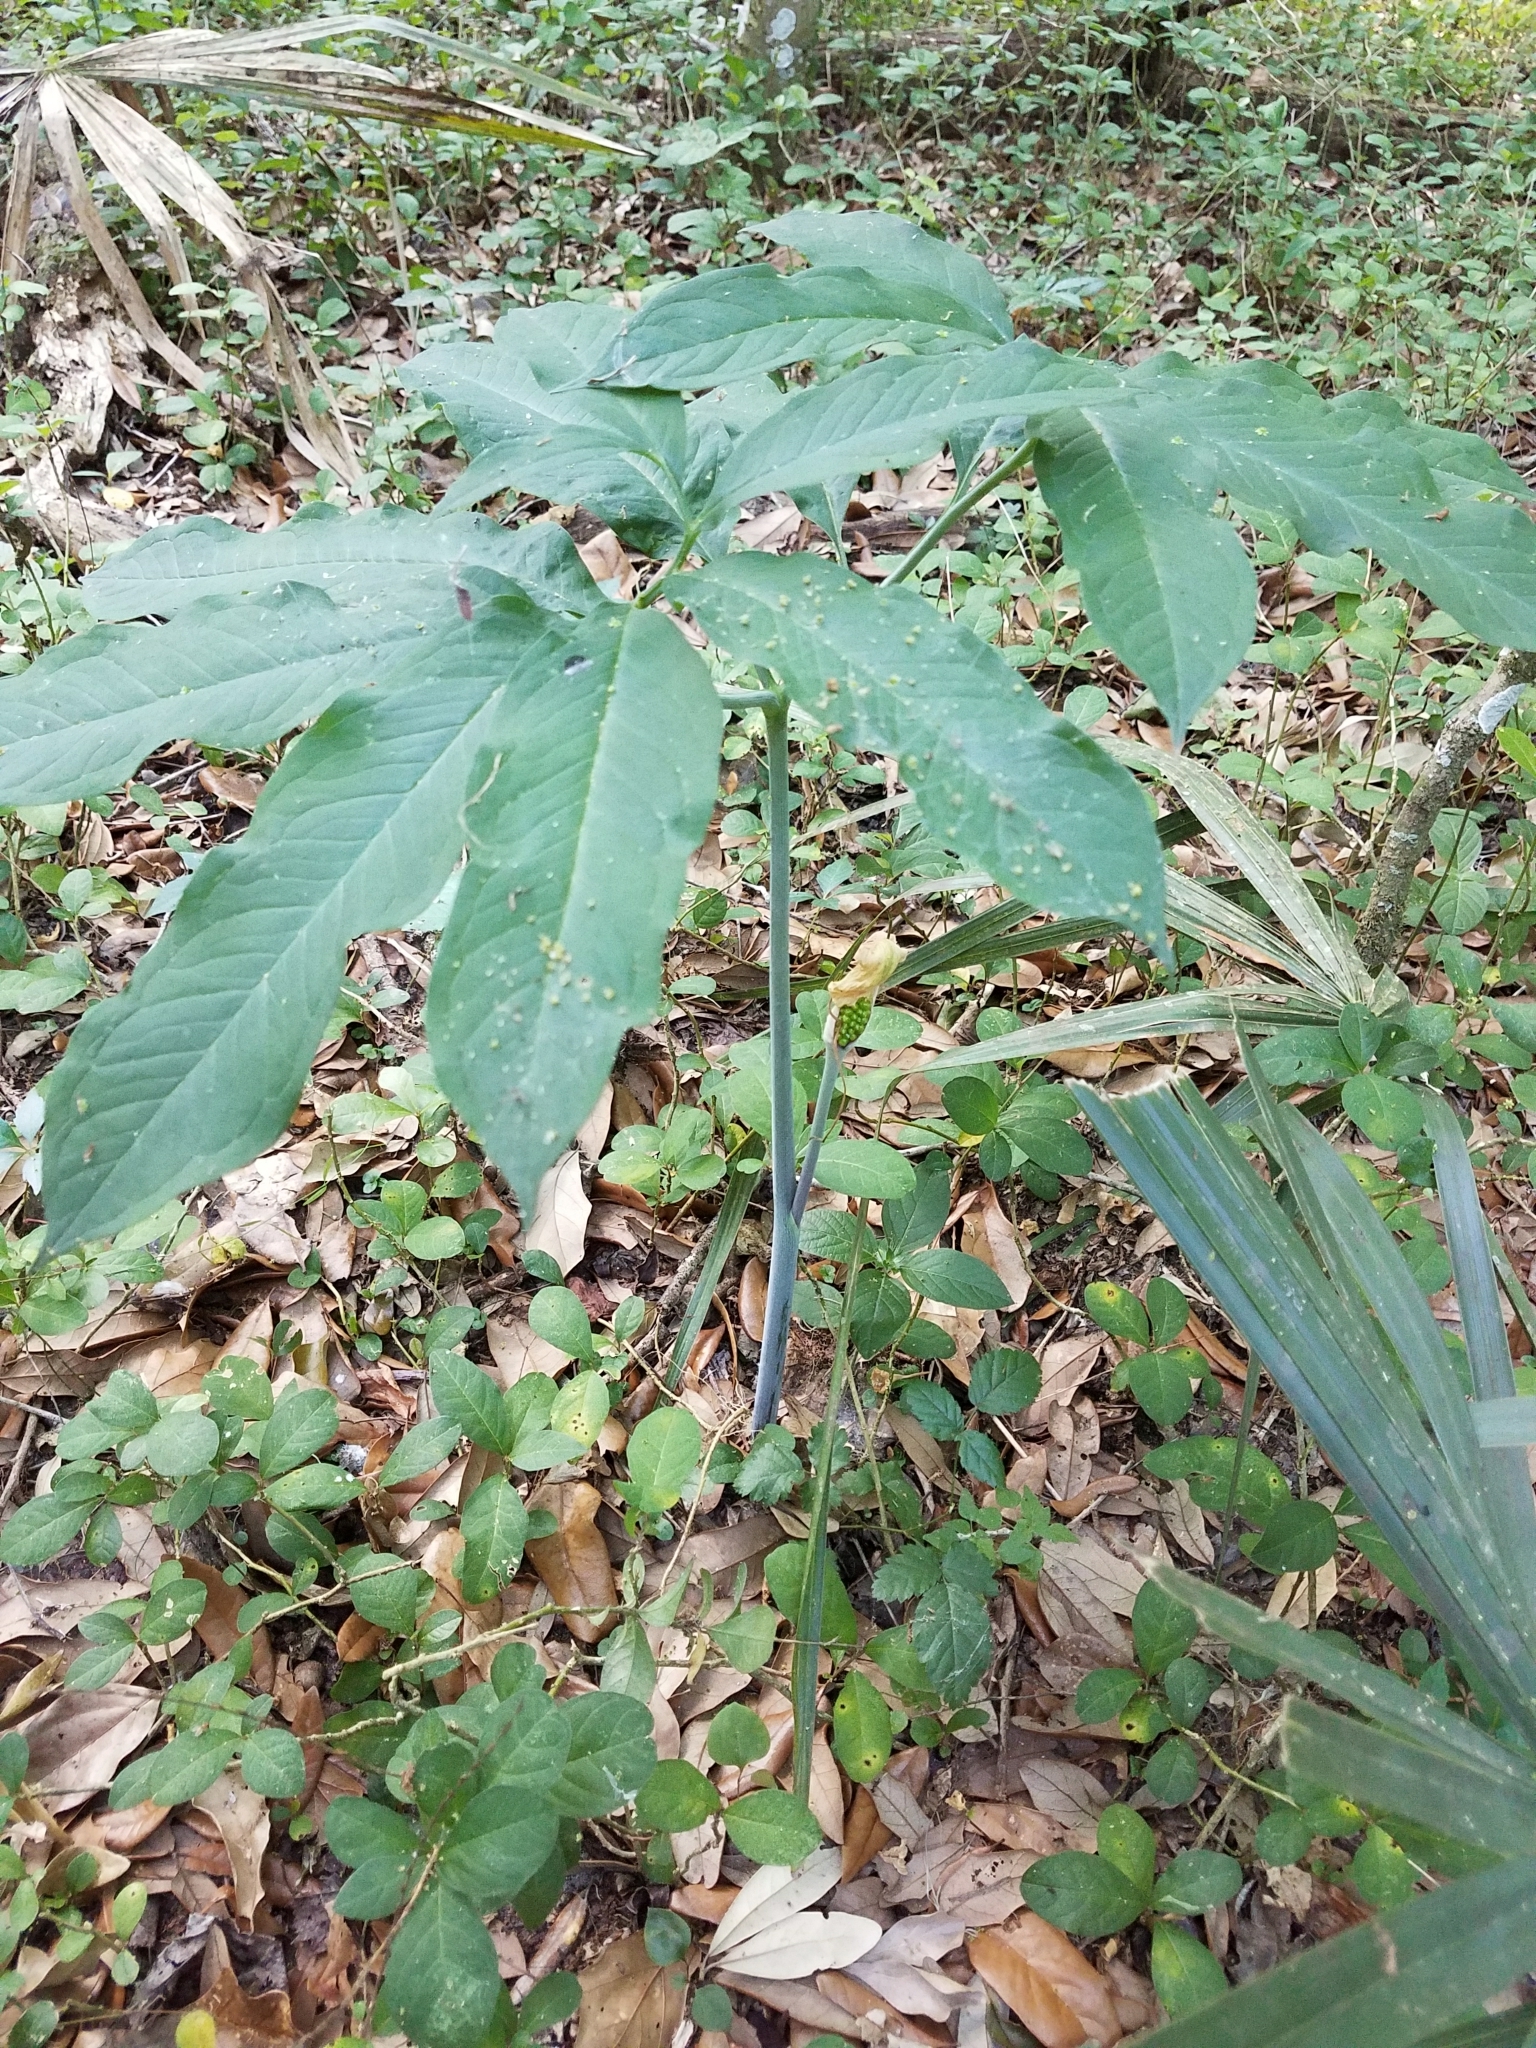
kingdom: Plantae
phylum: Tracheophyta
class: Liliopsida
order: Alismatales
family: Araceae
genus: Arisaema
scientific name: Arisaema dracontium
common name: Dragon-arum
